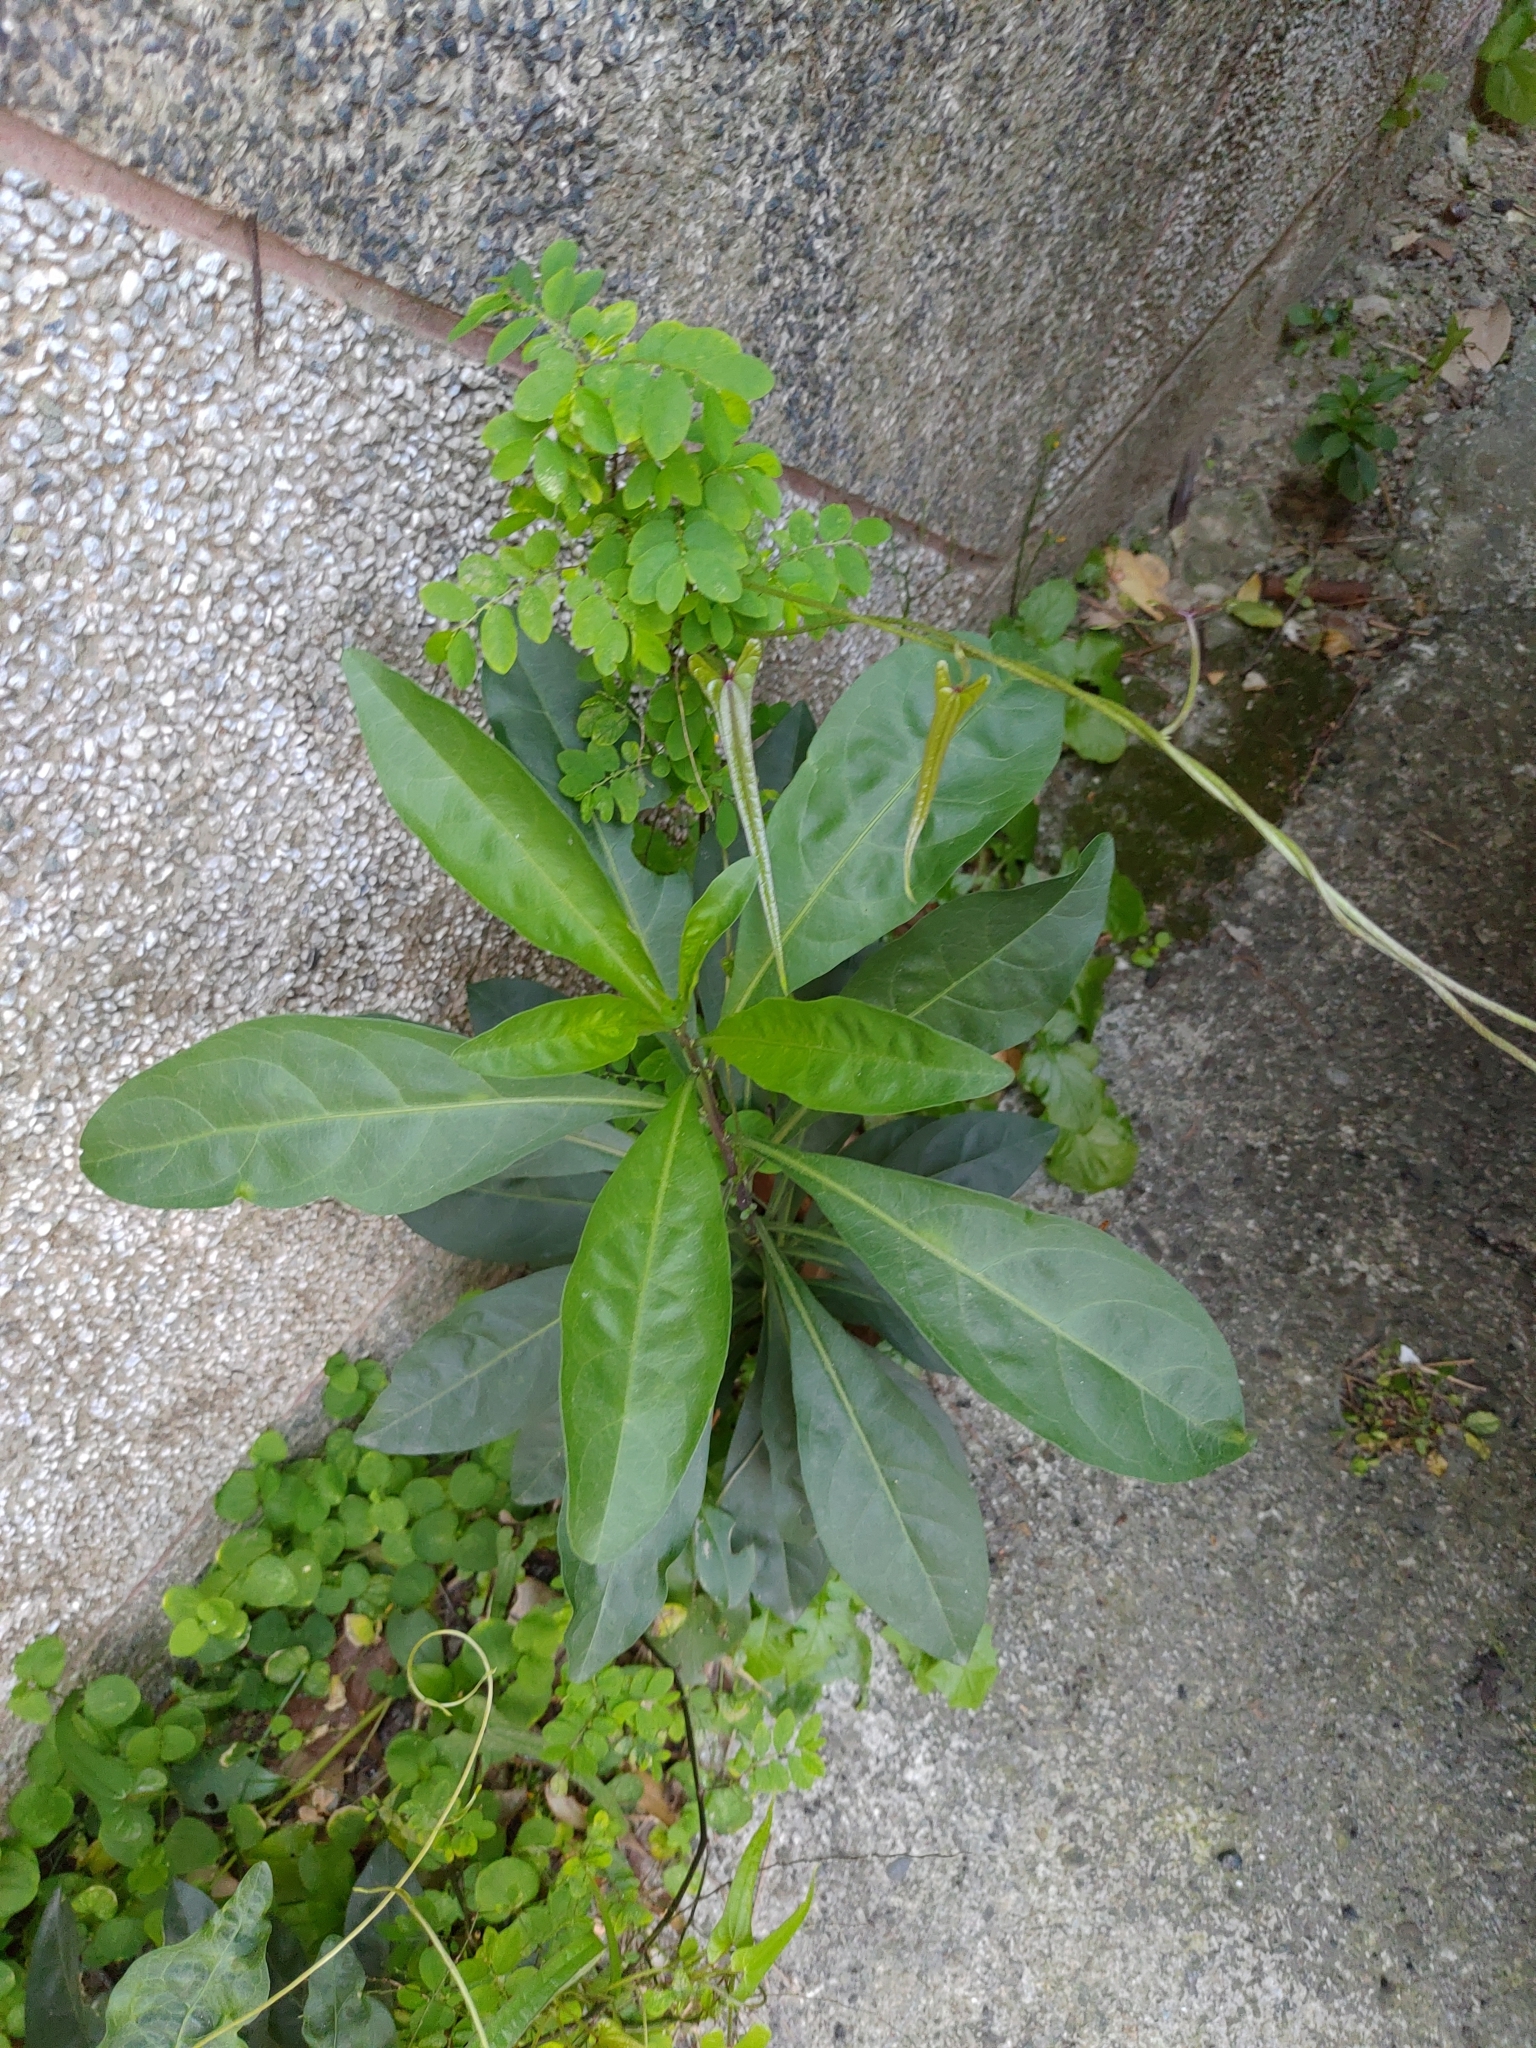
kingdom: Plantae
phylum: Tracheophyta
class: Magnoliopsida
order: Solanales
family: Solanaceae
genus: Solanum
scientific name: Solanum diphyllum
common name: Twoleaf nightshade
